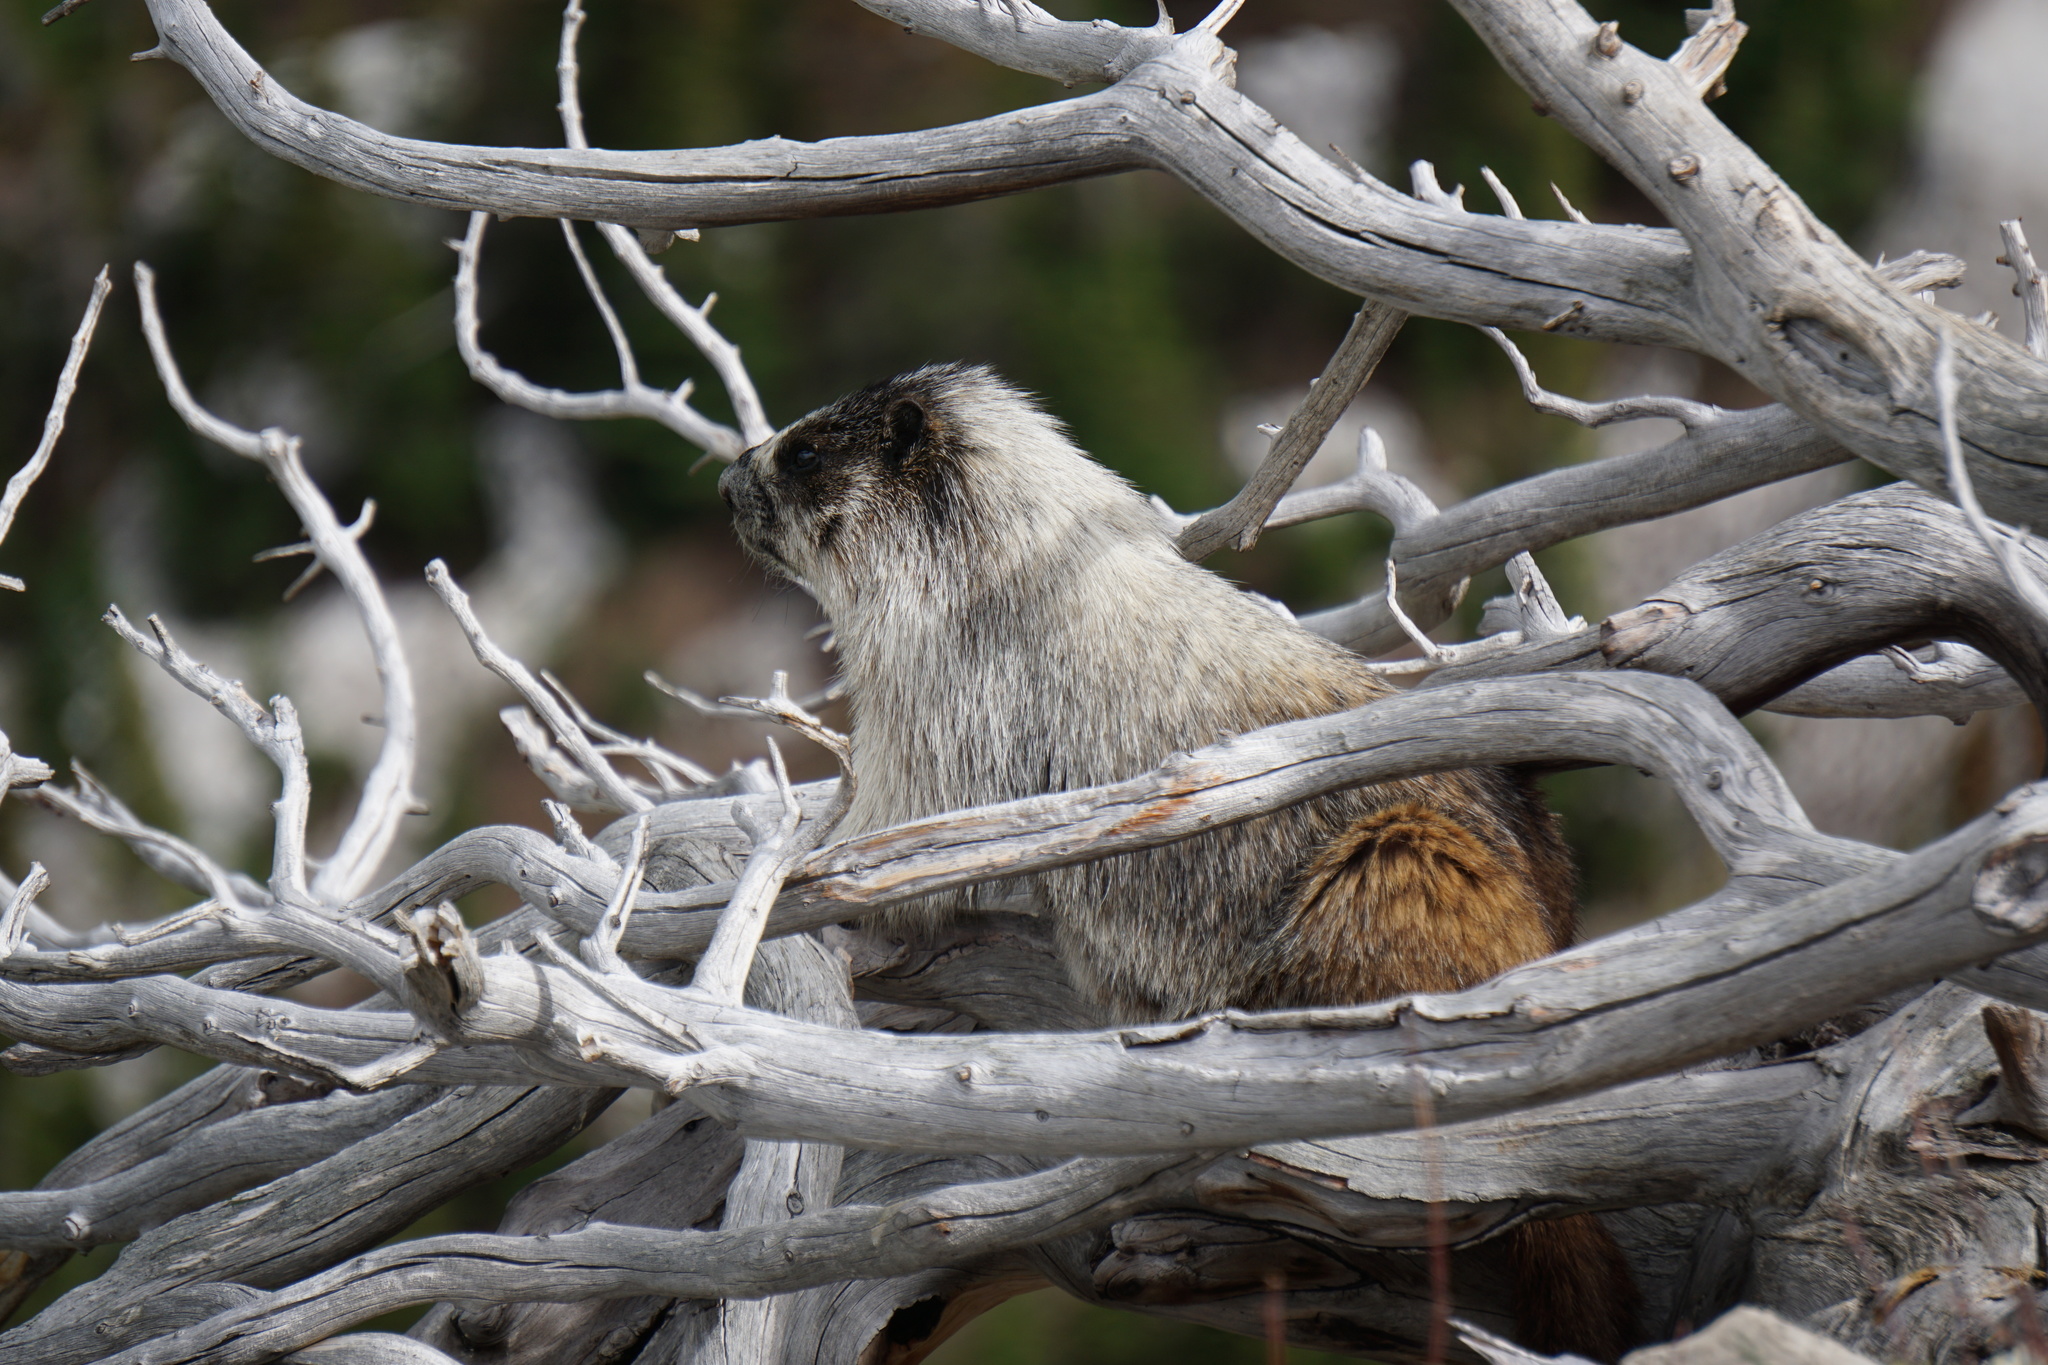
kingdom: Animalia
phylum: Chordata
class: Mammalia
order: Rodentia
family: Sciuridae
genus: Marmota
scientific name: Marmota caligata
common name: Hoary marmot
